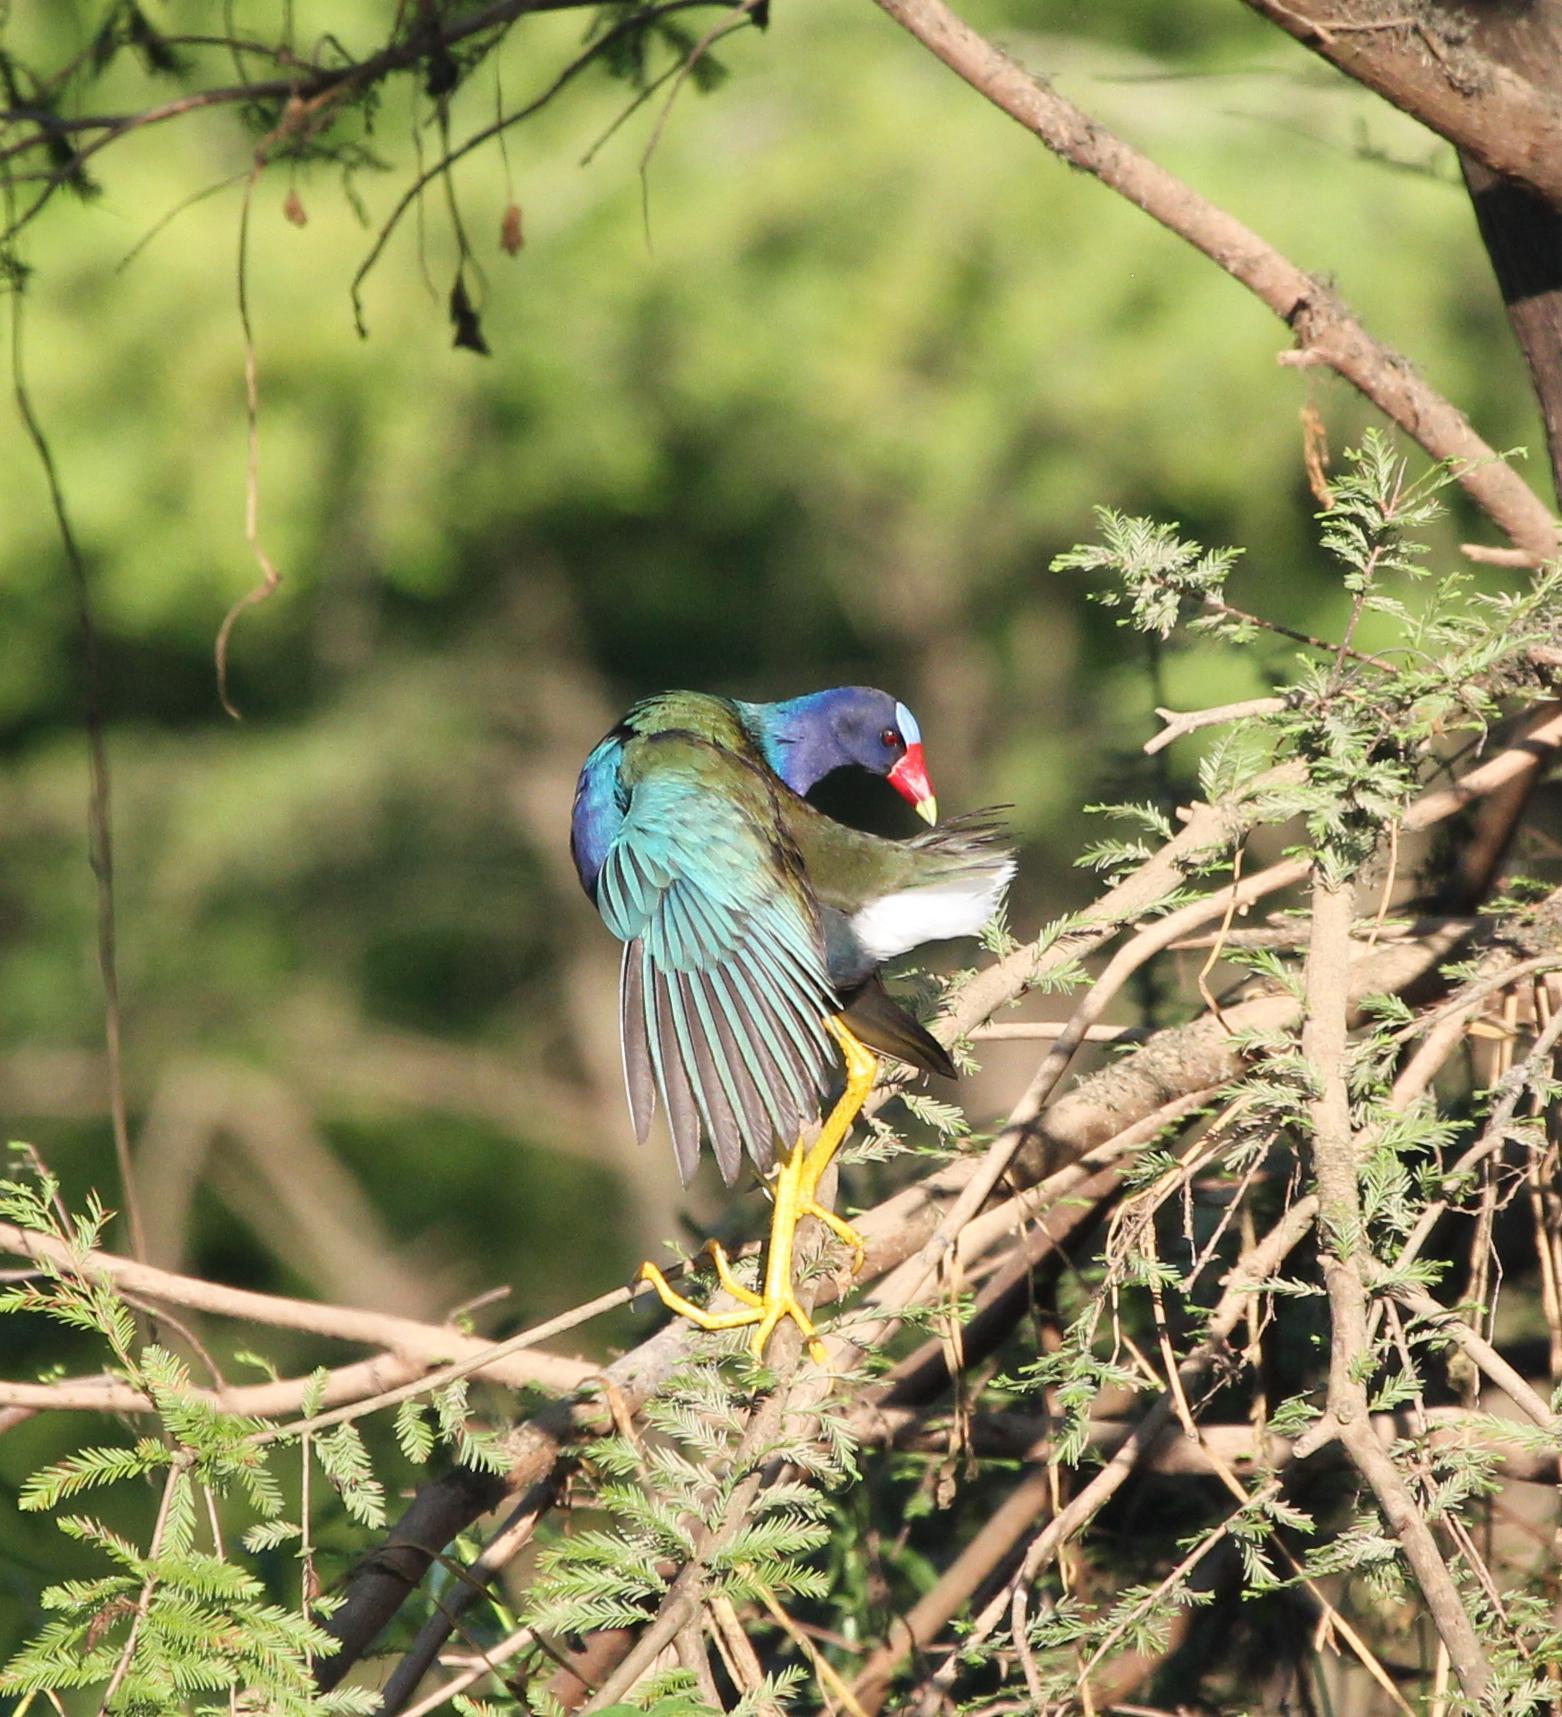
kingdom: Animalia
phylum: Chordata
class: Aves
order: Gruiformes
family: Rallidae
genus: Porphyrio
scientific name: Porphyrio martinica
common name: Purple gallinule
